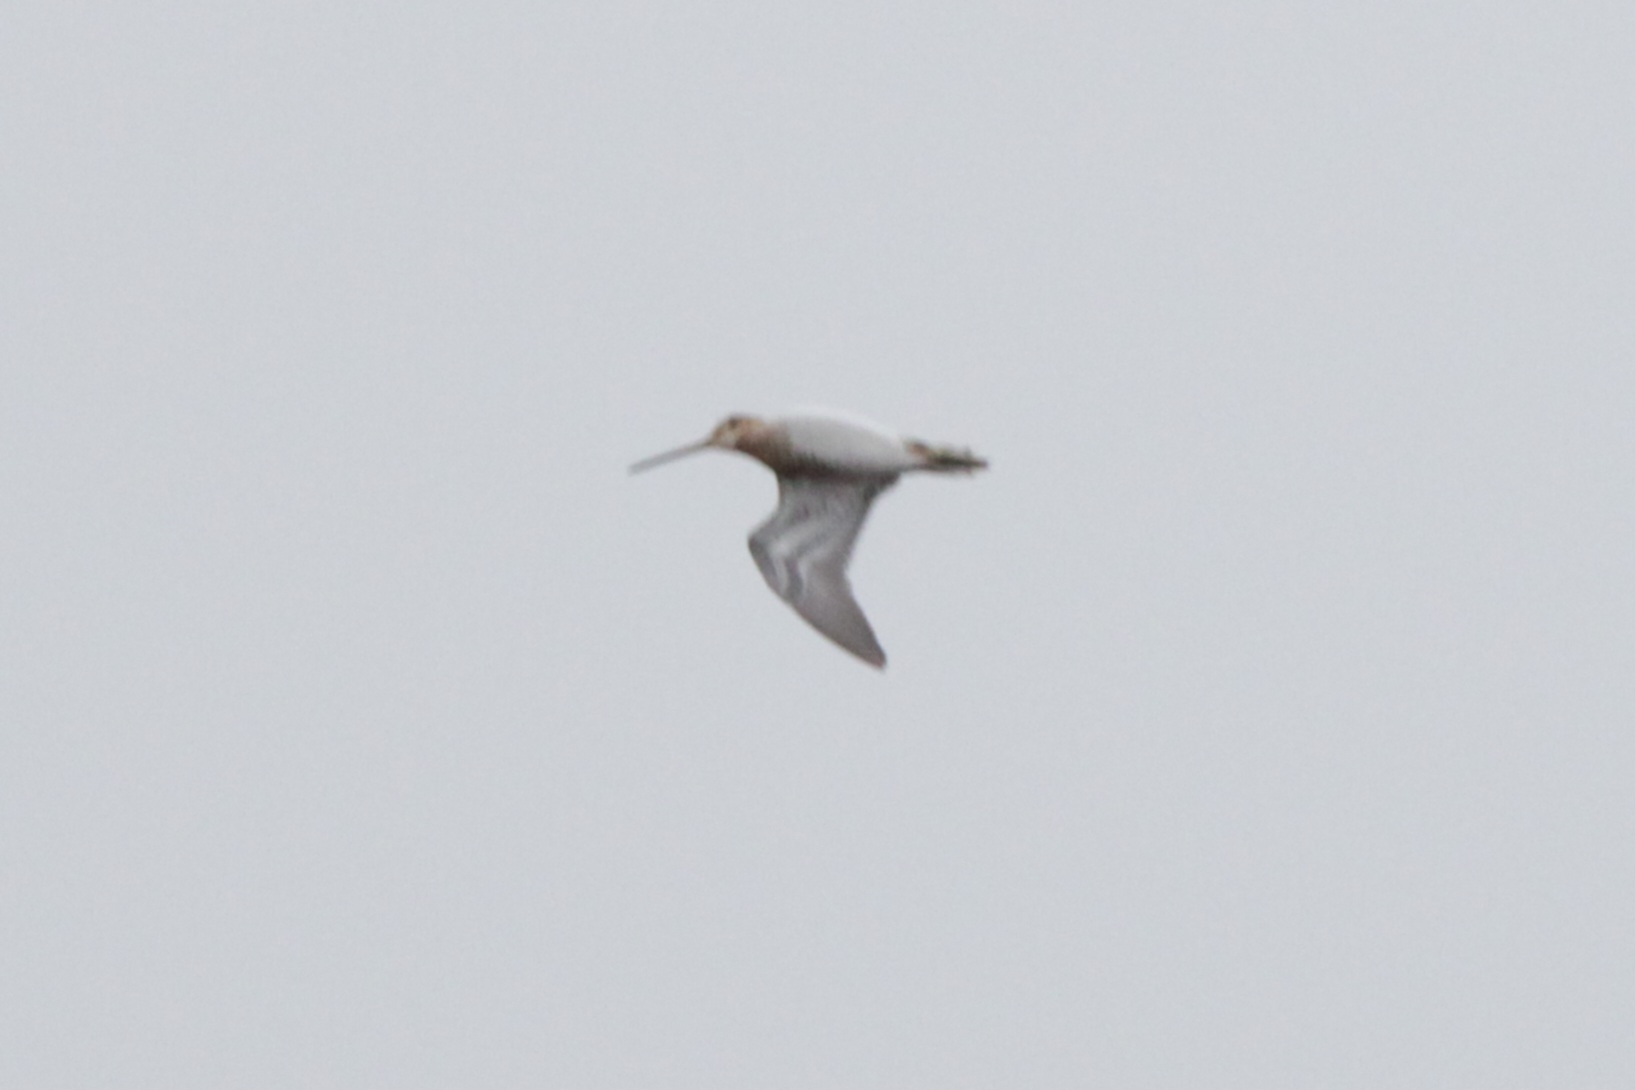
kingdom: Animalia
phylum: Chordata
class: Aves
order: Charadriiformes
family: Scolopacidae
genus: Gallinago
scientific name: Gallinago gallinago
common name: Common snipe
